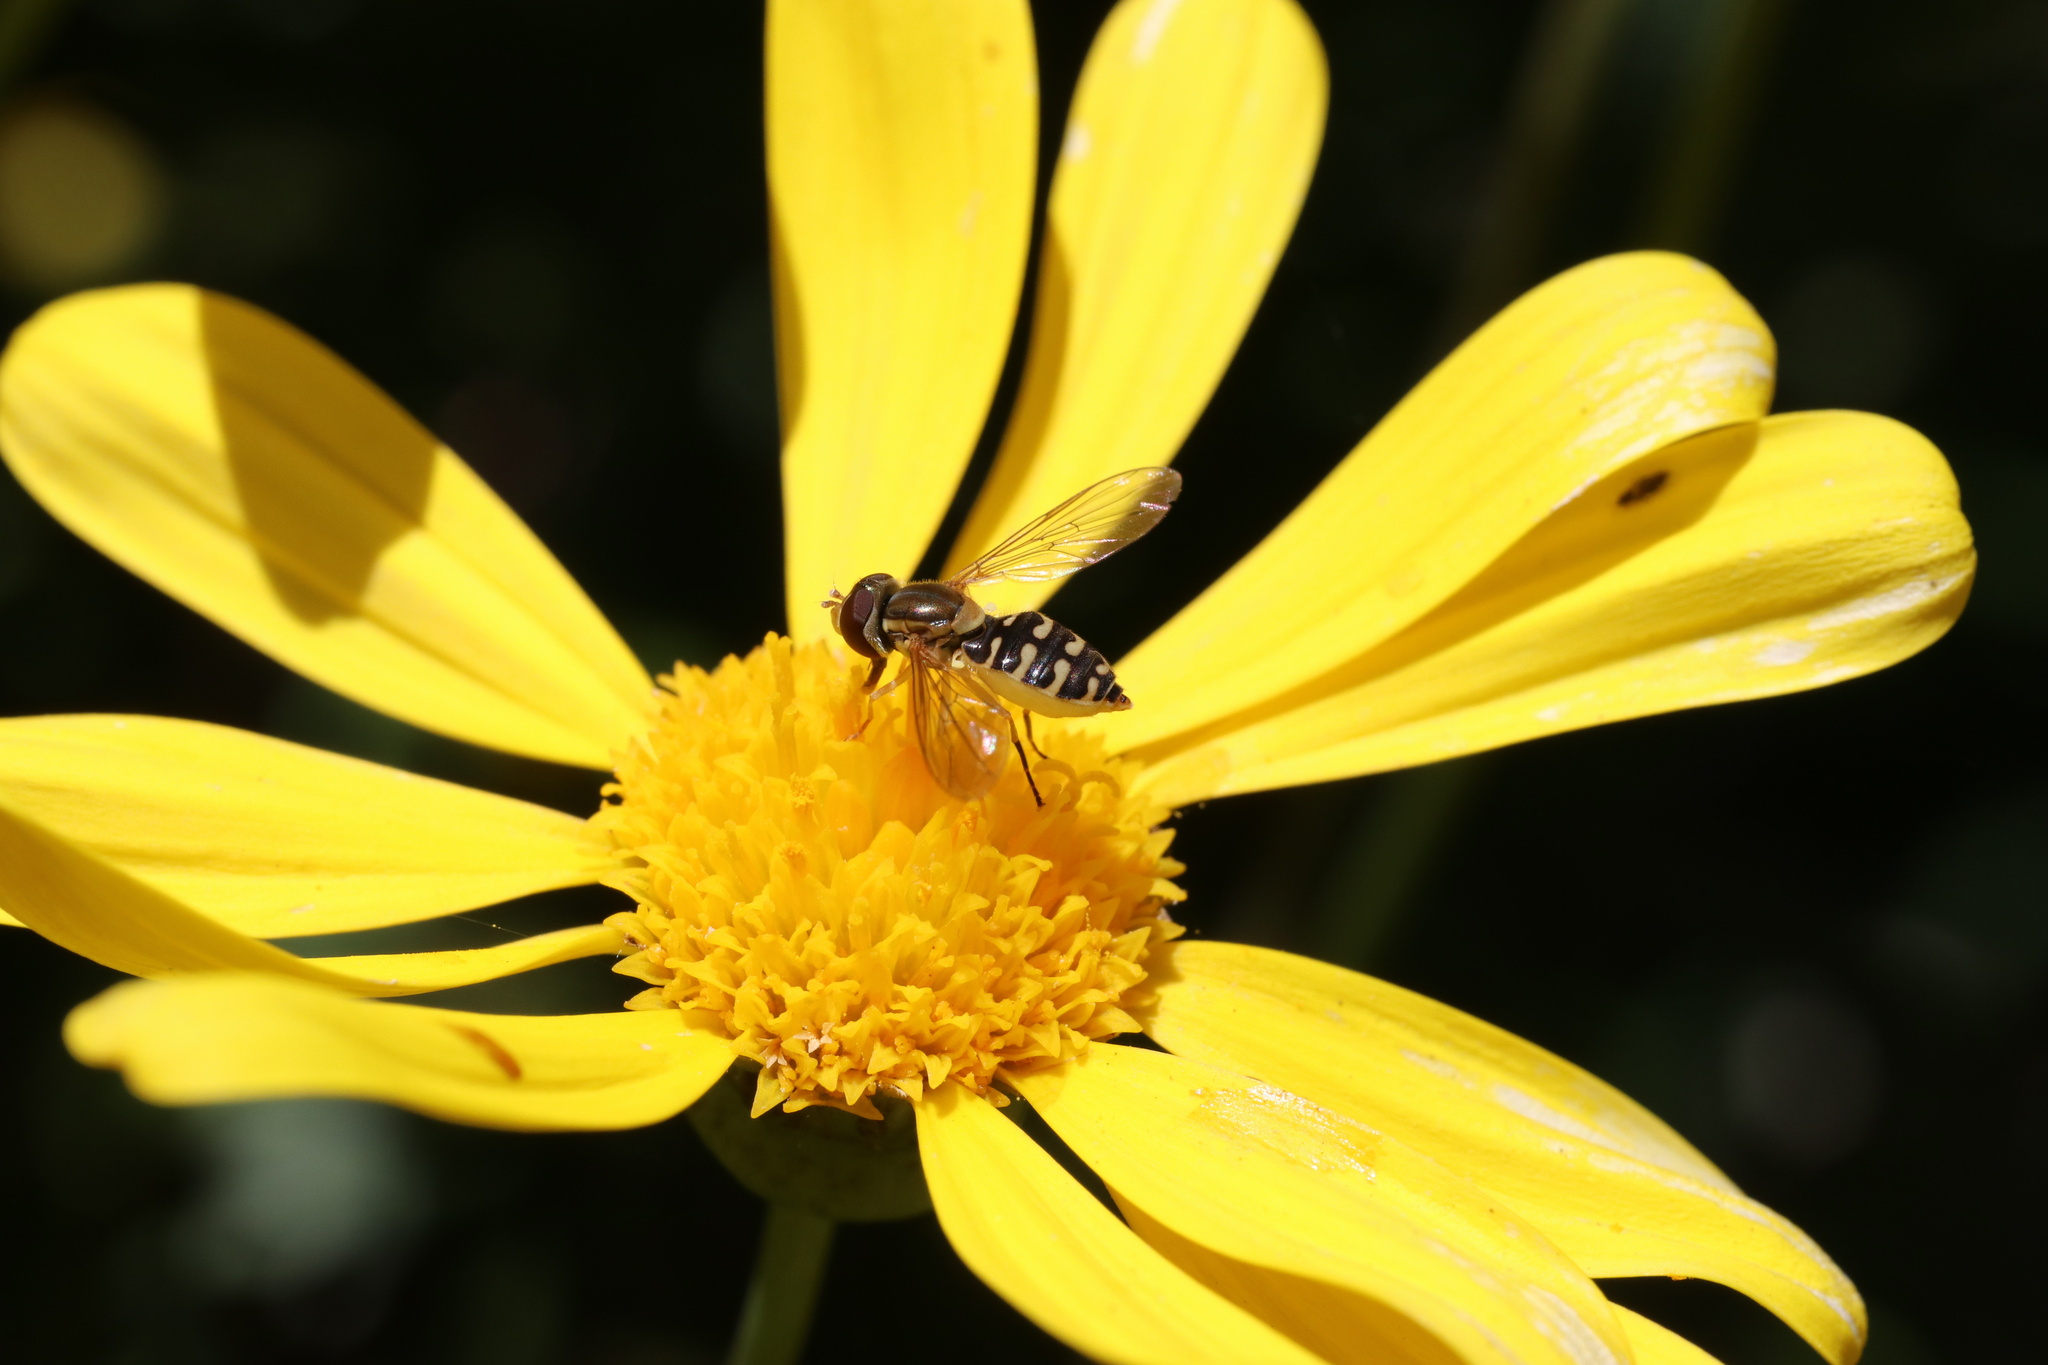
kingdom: Animalia
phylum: Arthropoda
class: Insecta
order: Diptera
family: Syrphidae
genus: Toxomerus
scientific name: Toxomerus vertebratus
